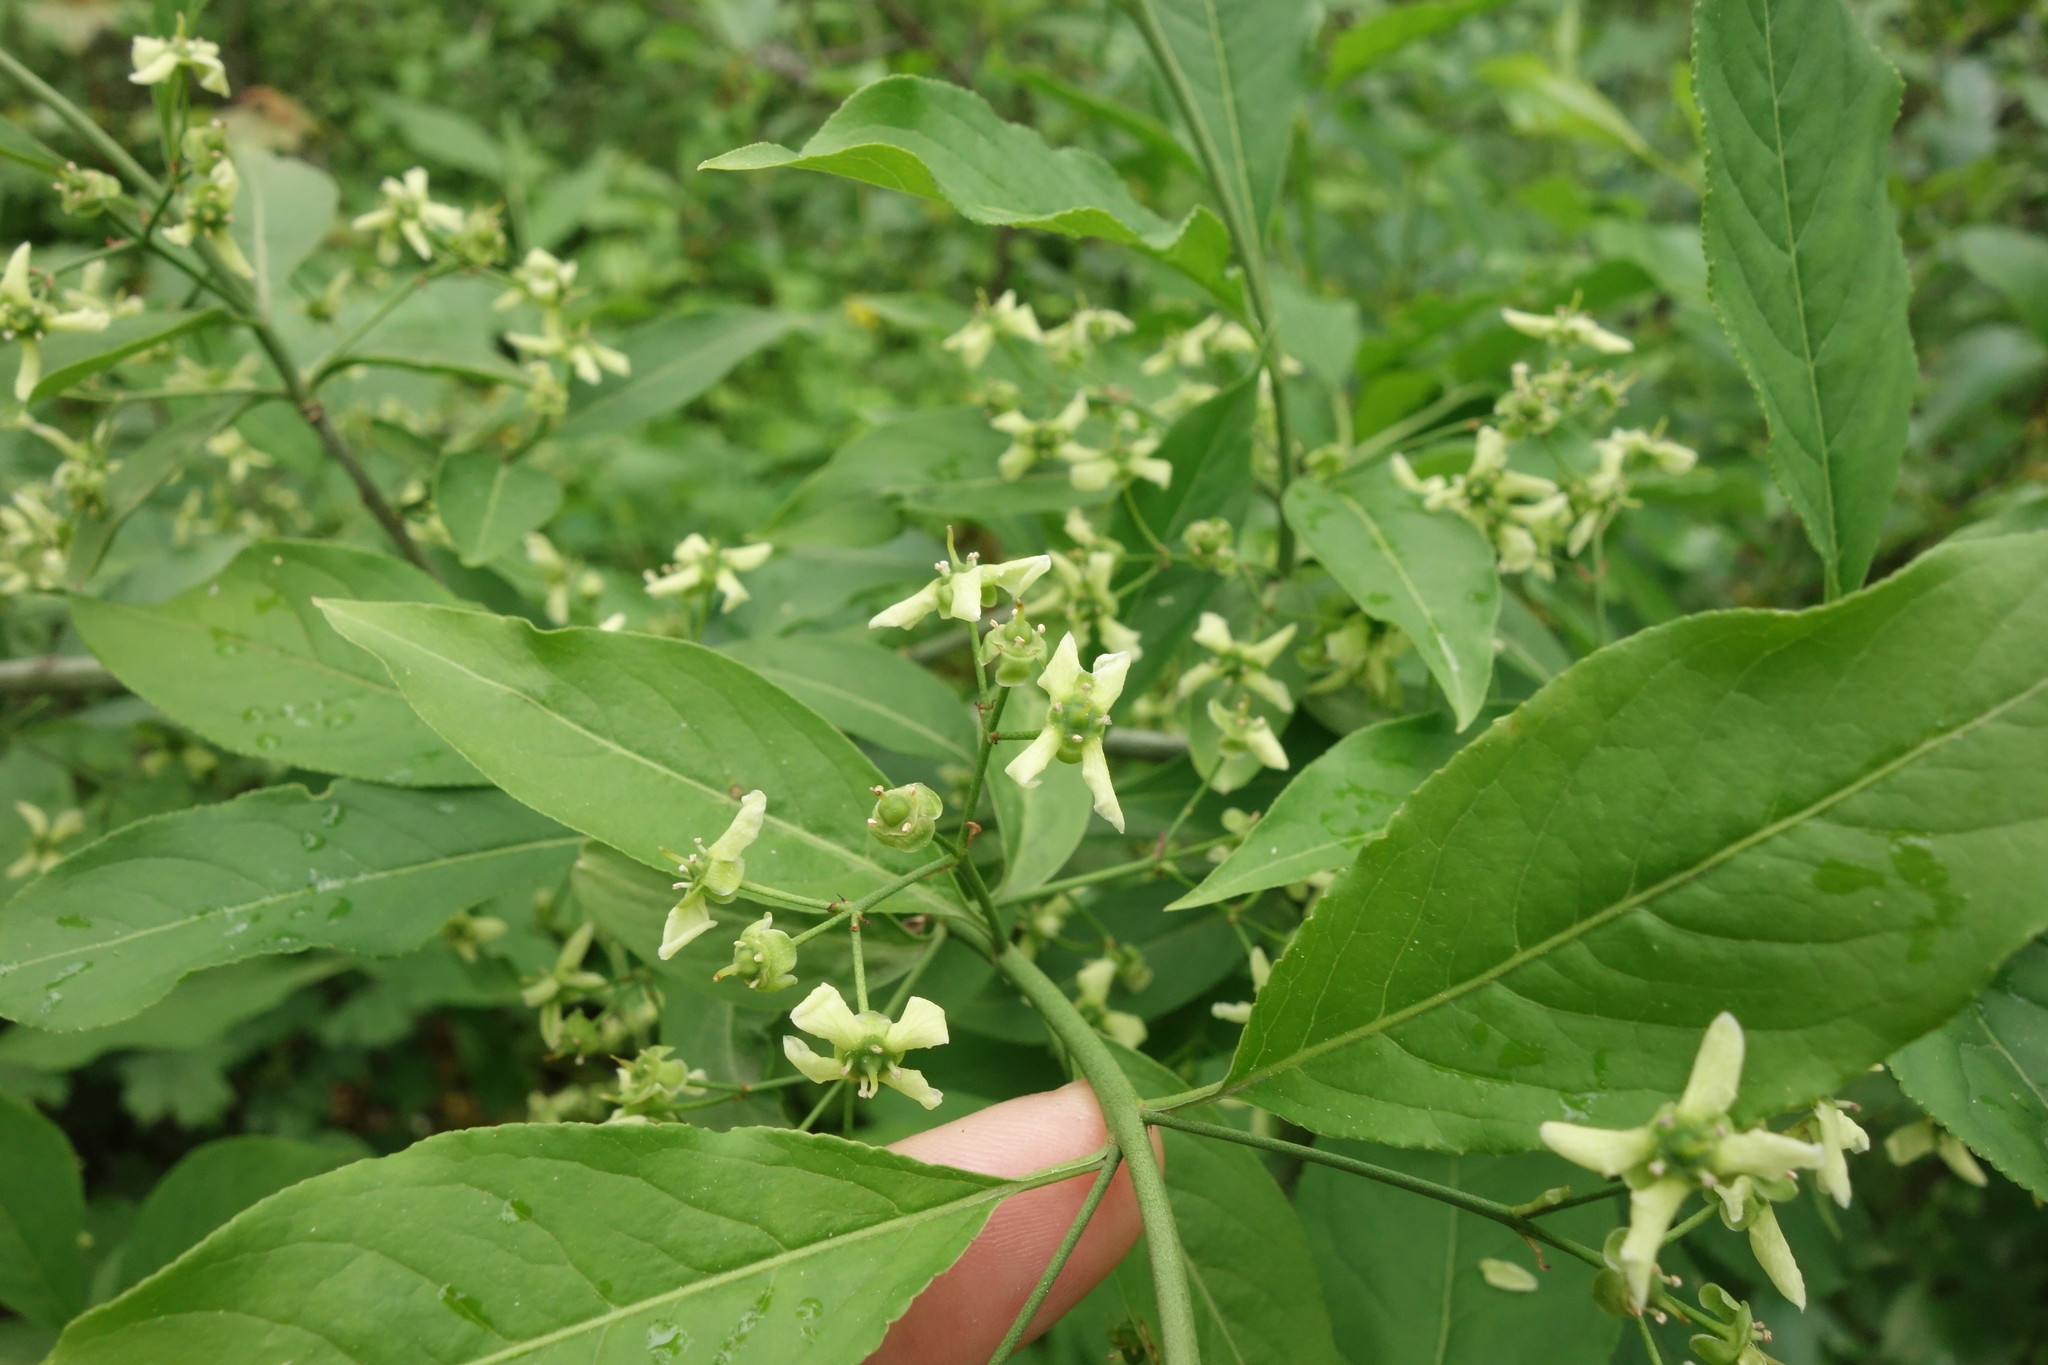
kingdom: Plantae
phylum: Tracheophyta
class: Magnoliopsida
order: Celastrales
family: Celastraceae
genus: Euonymus
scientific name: Euonymus europaeus
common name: Spindle
